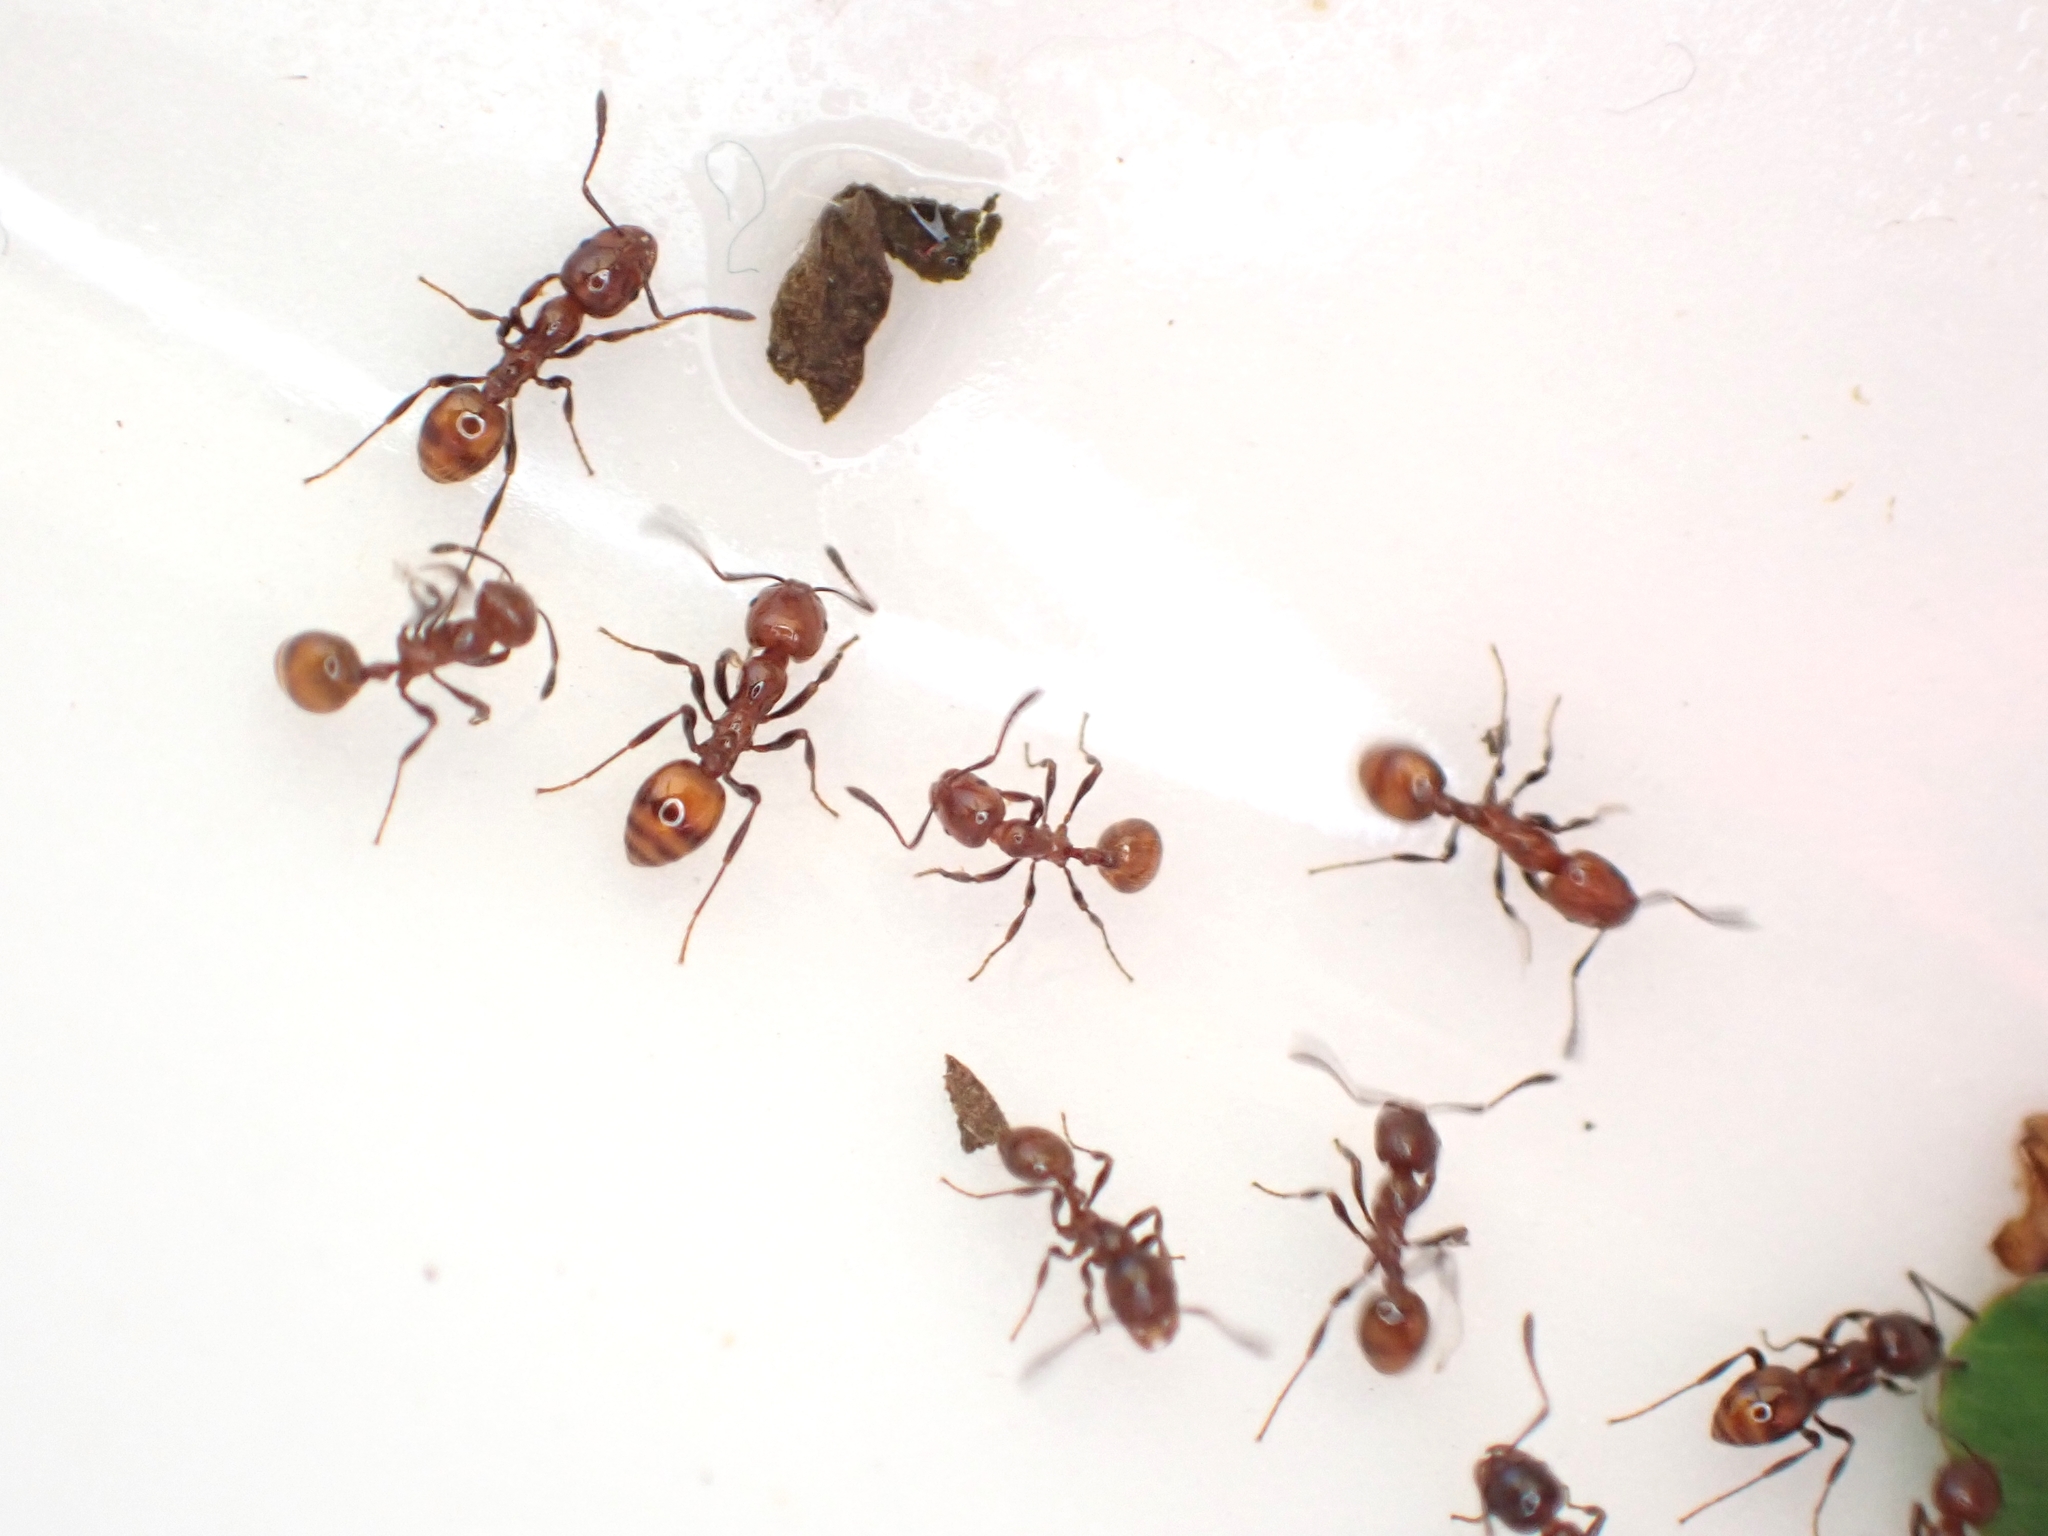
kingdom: Animalia
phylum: Arthropoda
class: Insecta
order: Hymenoptera
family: Formicidae
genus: Monomorium
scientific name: Monomorium antarcticum
